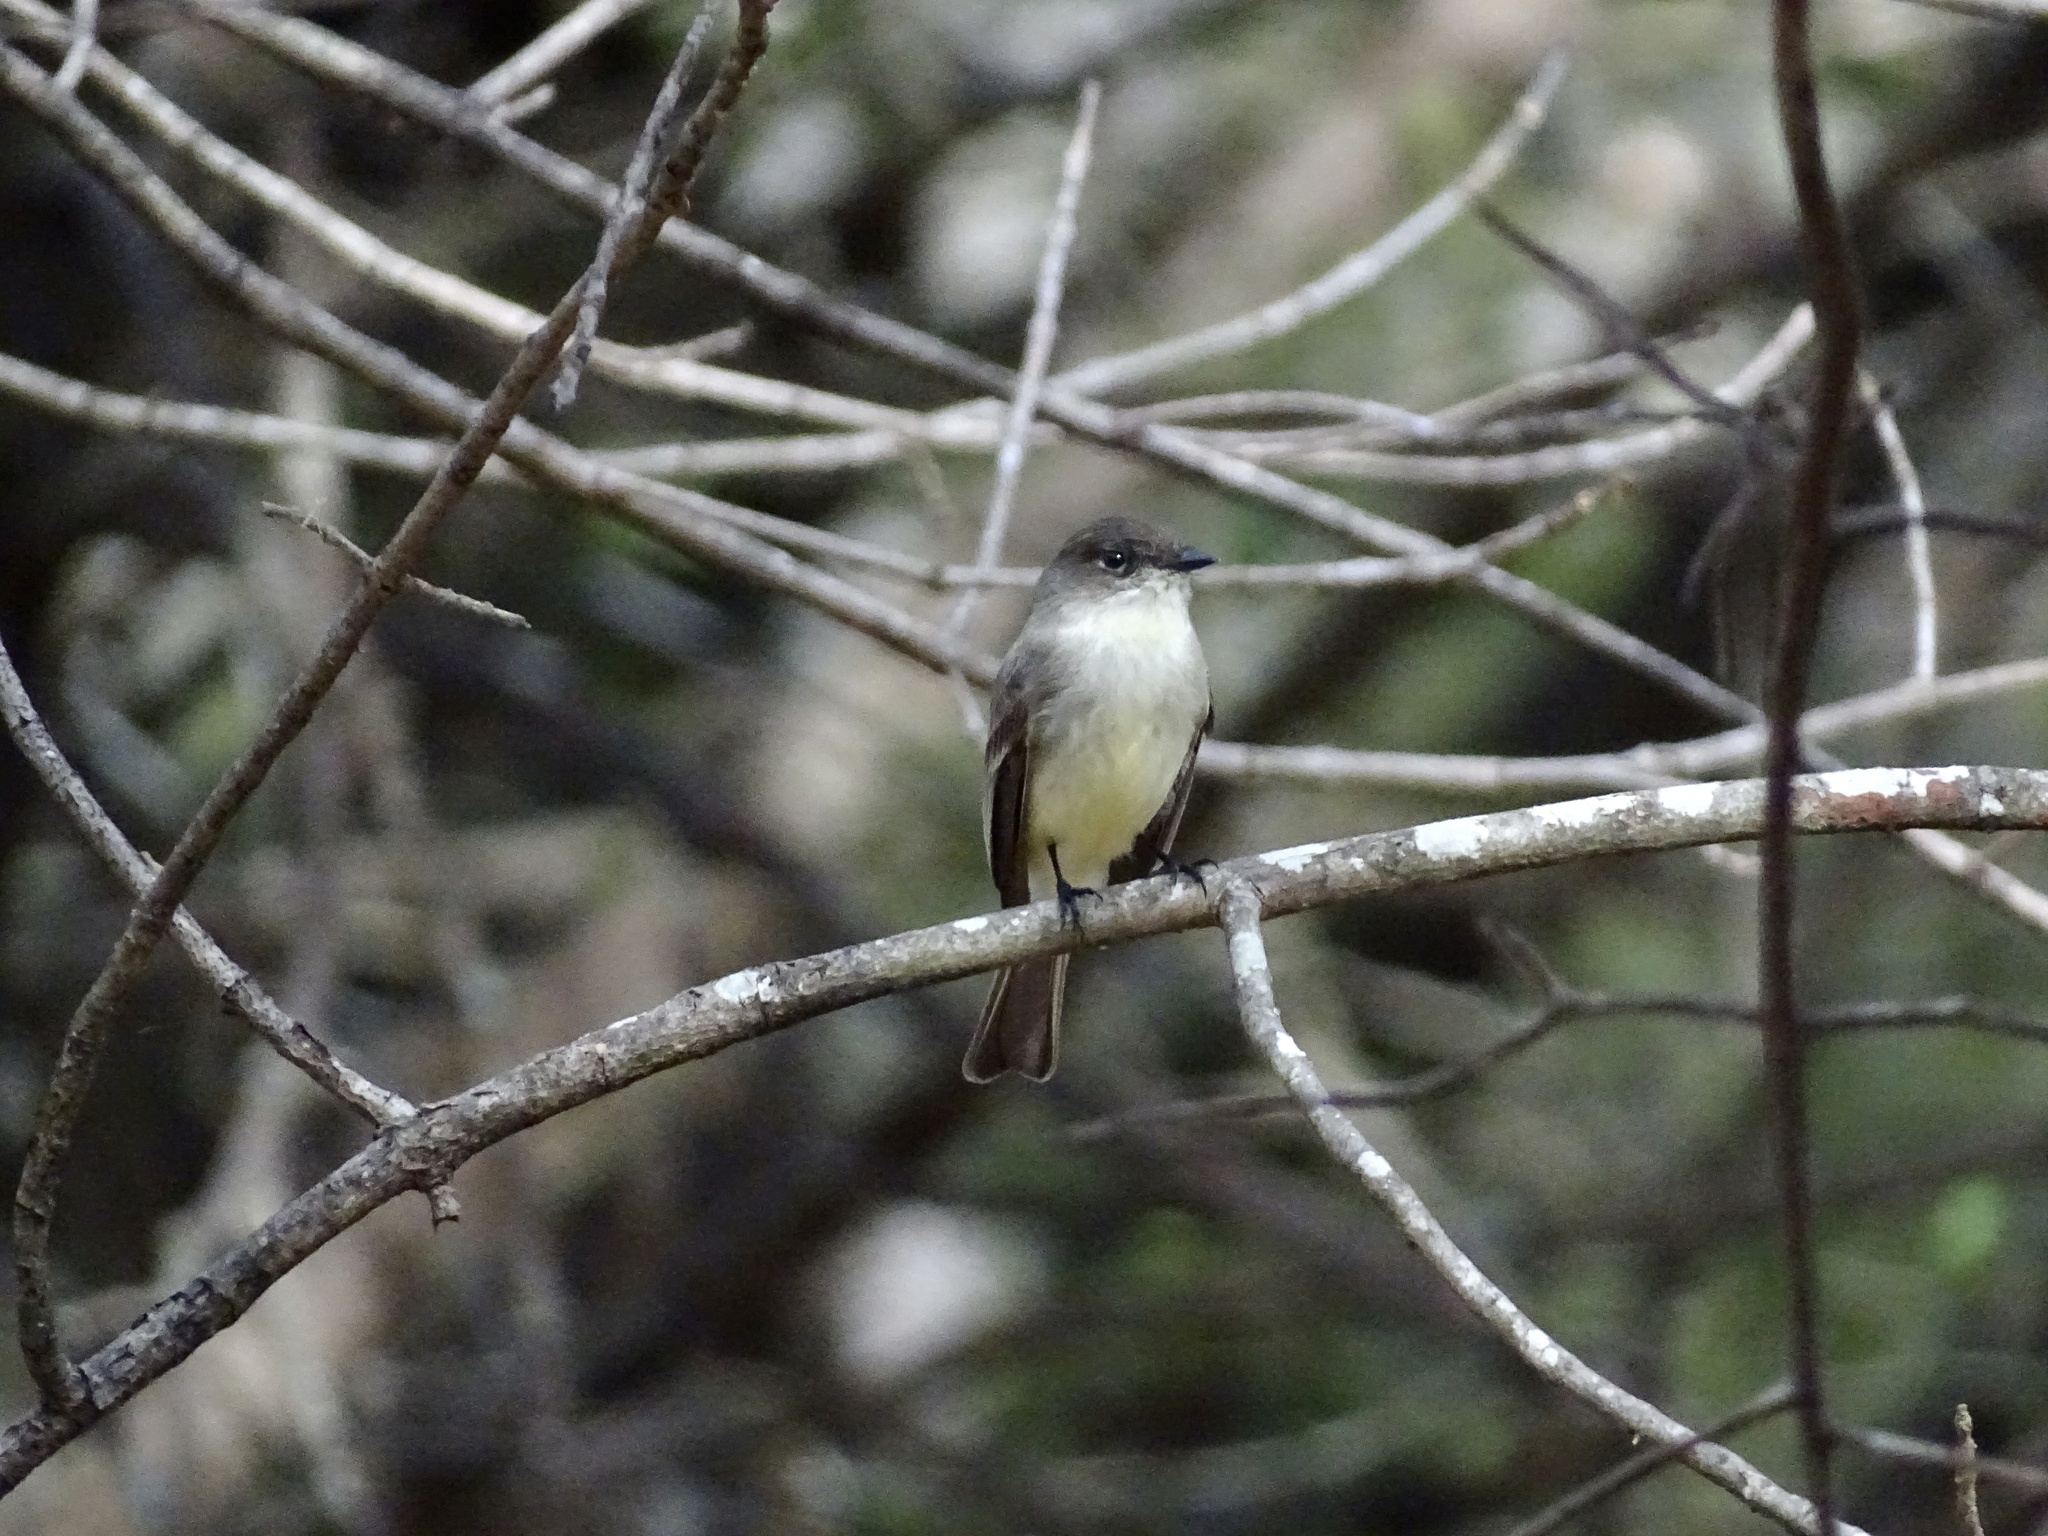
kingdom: Animalia
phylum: Chordata
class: Aves
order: Passeriformes
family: Tyrannidae
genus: Sayornis
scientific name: Sayornis phoebe
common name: Eastern phoebe
